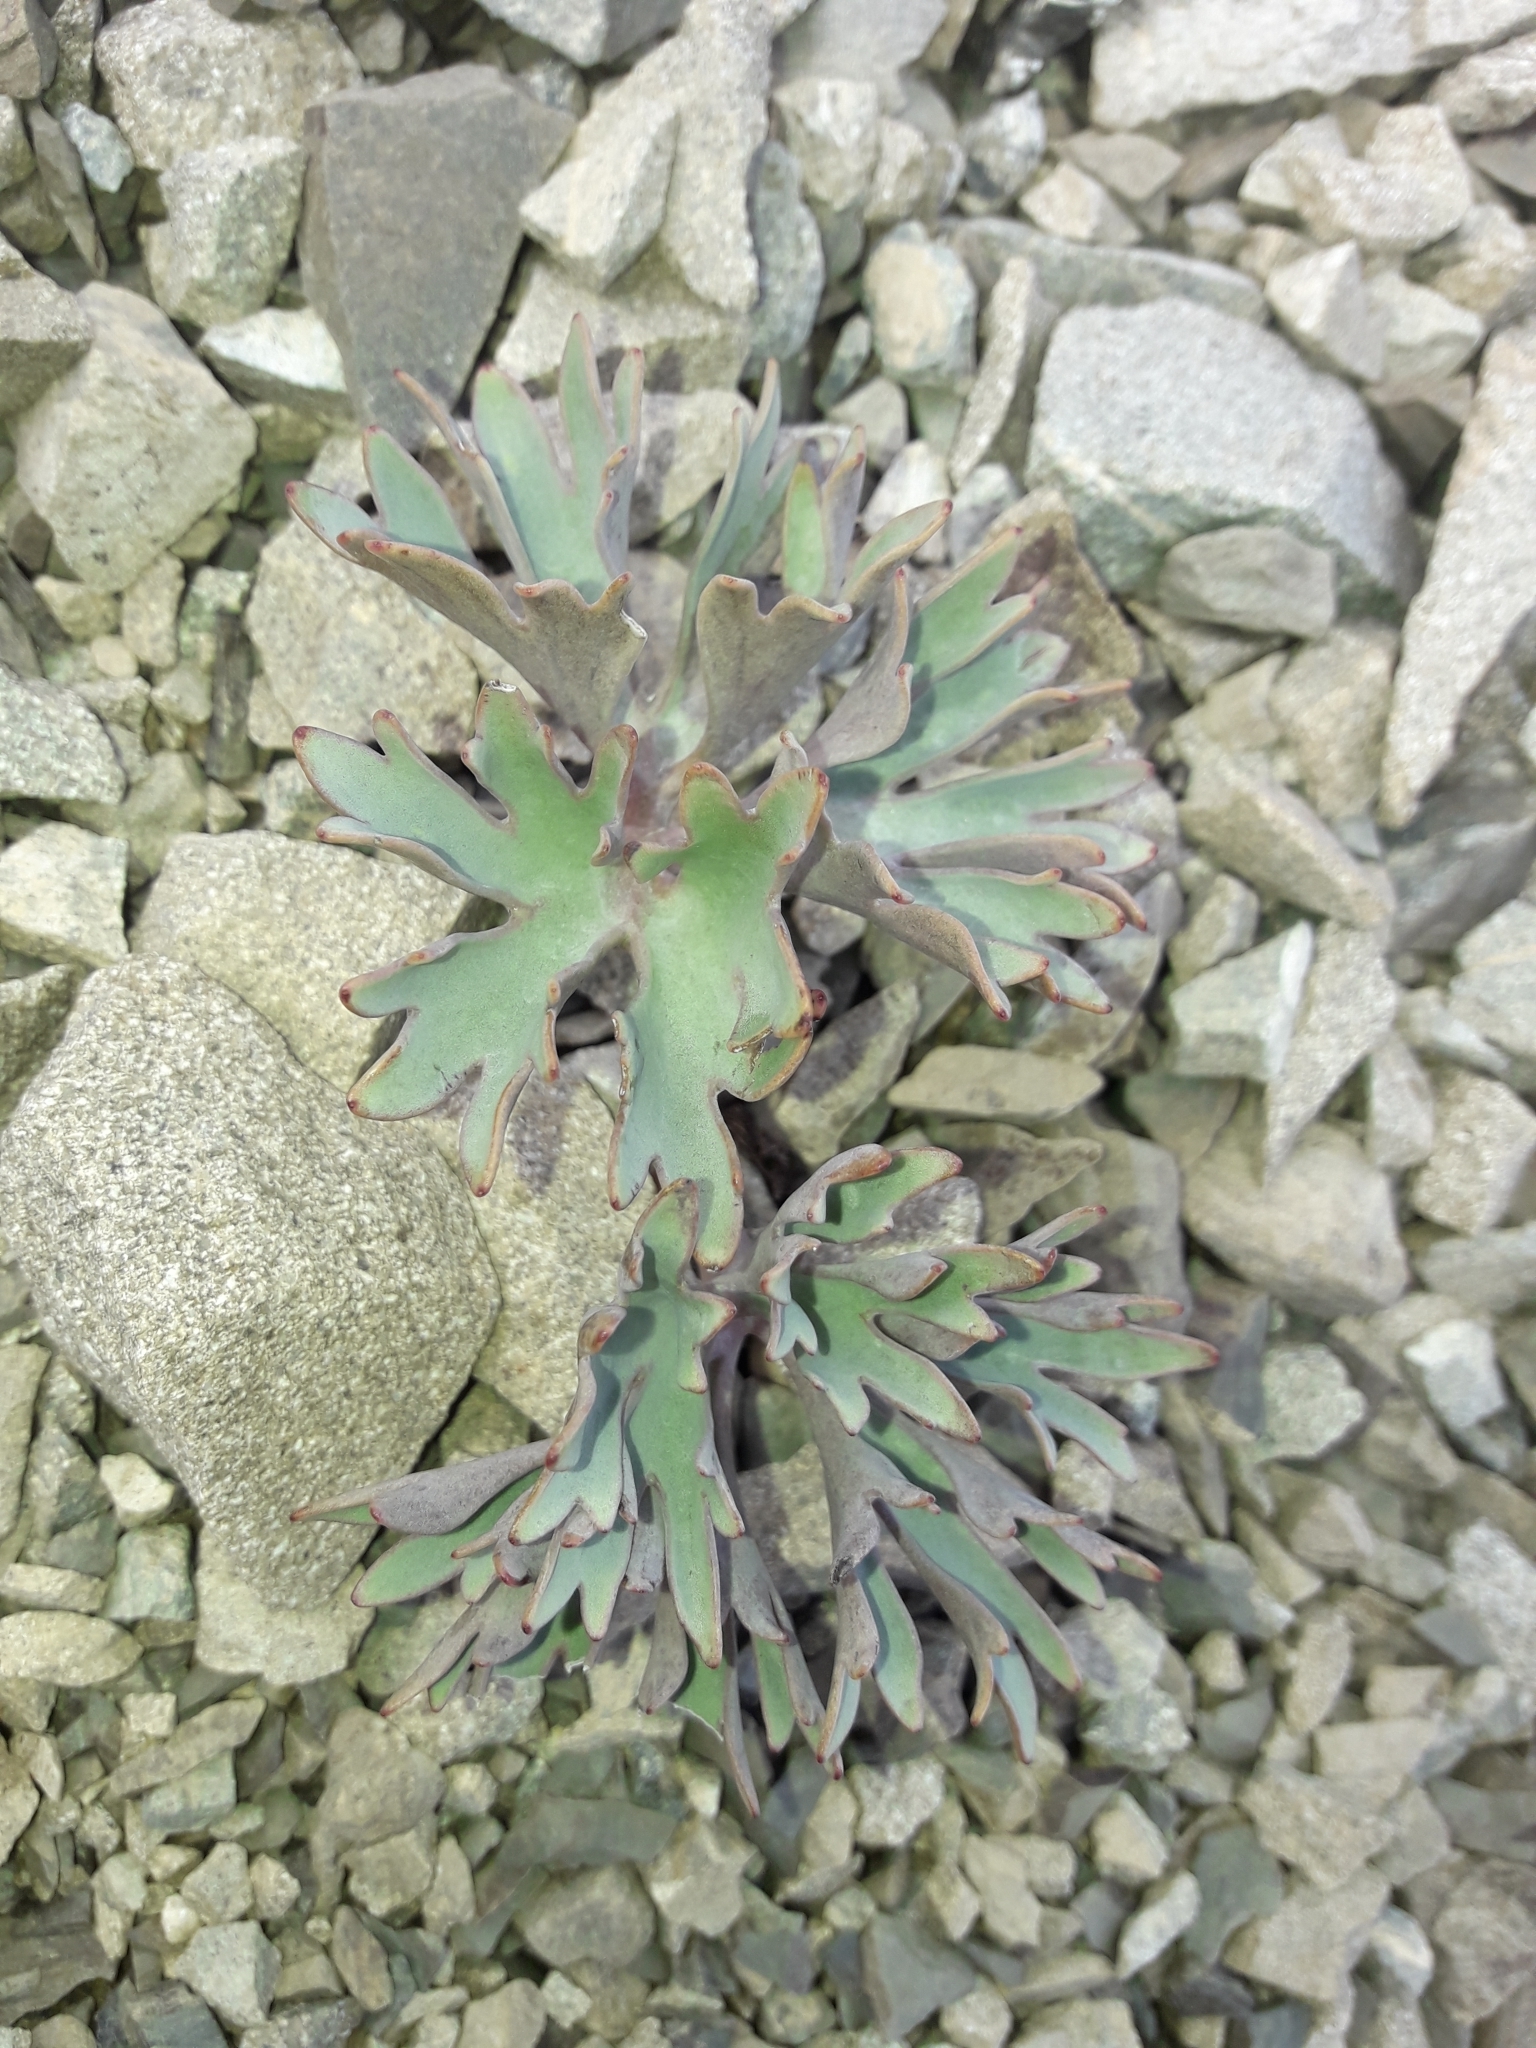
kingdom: Plantae
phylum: Tracheophyta
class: Magnoliopsida
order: Ranunculales
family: Ranunculaceae
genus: Ranunculus
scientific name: Ranunculus haastii
